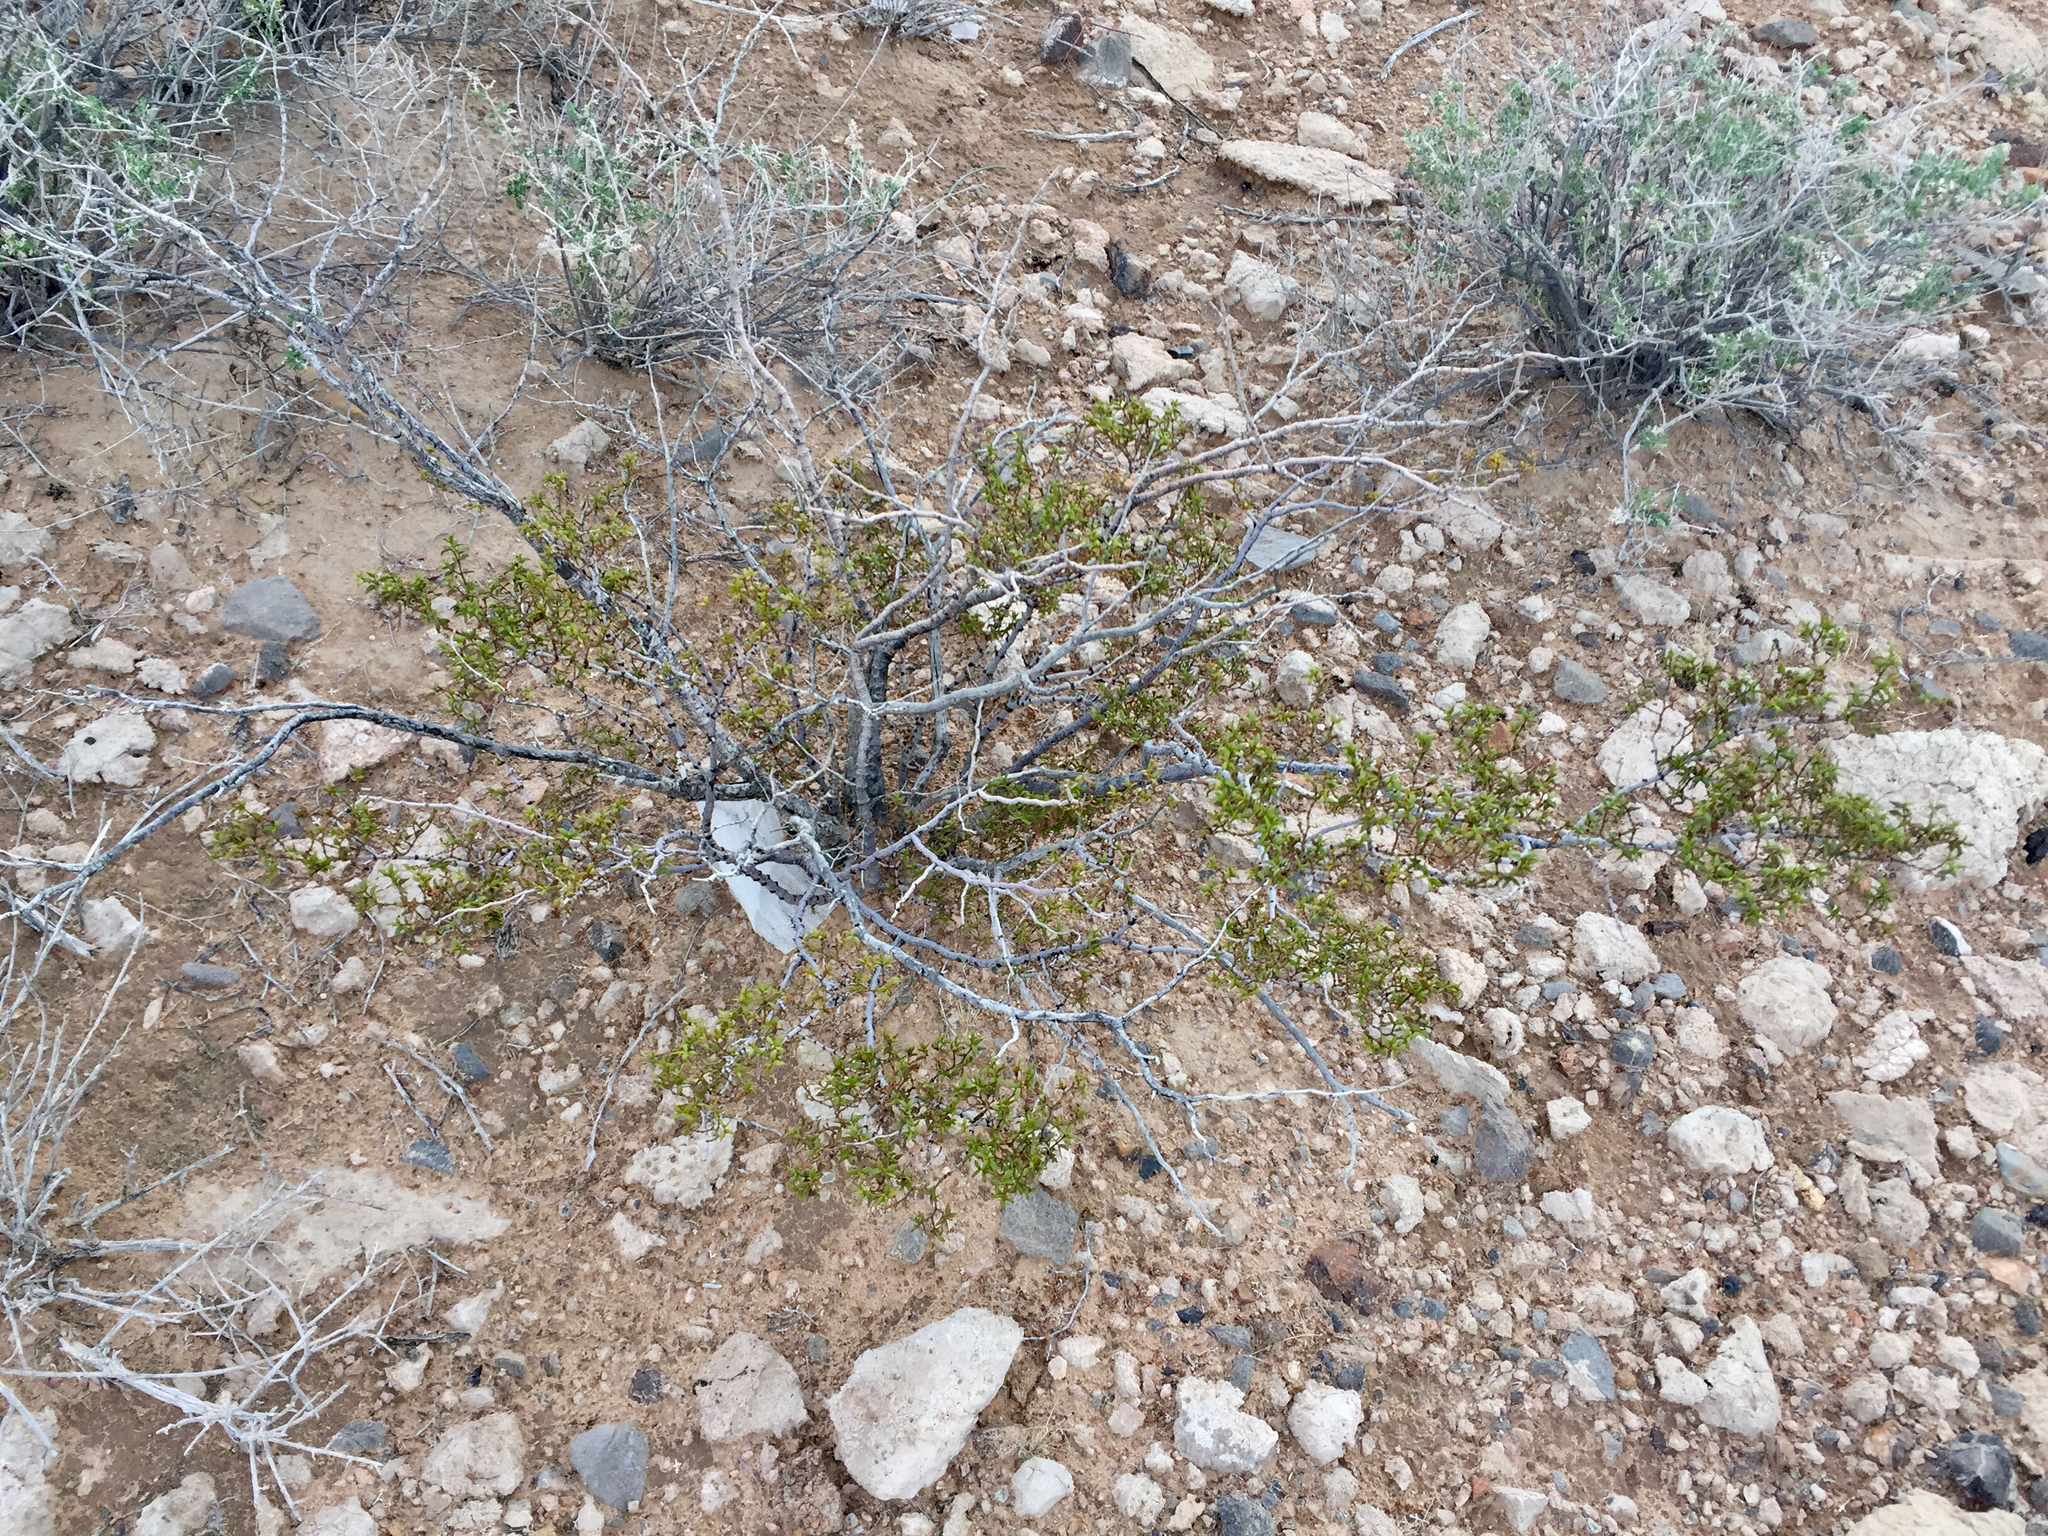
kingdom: Plantae
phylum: Tracheophyta
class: Magnoliopsida
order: Zygophyllales
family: Zygophyllaceae
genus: Larrea
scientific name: Larrea tridentata
